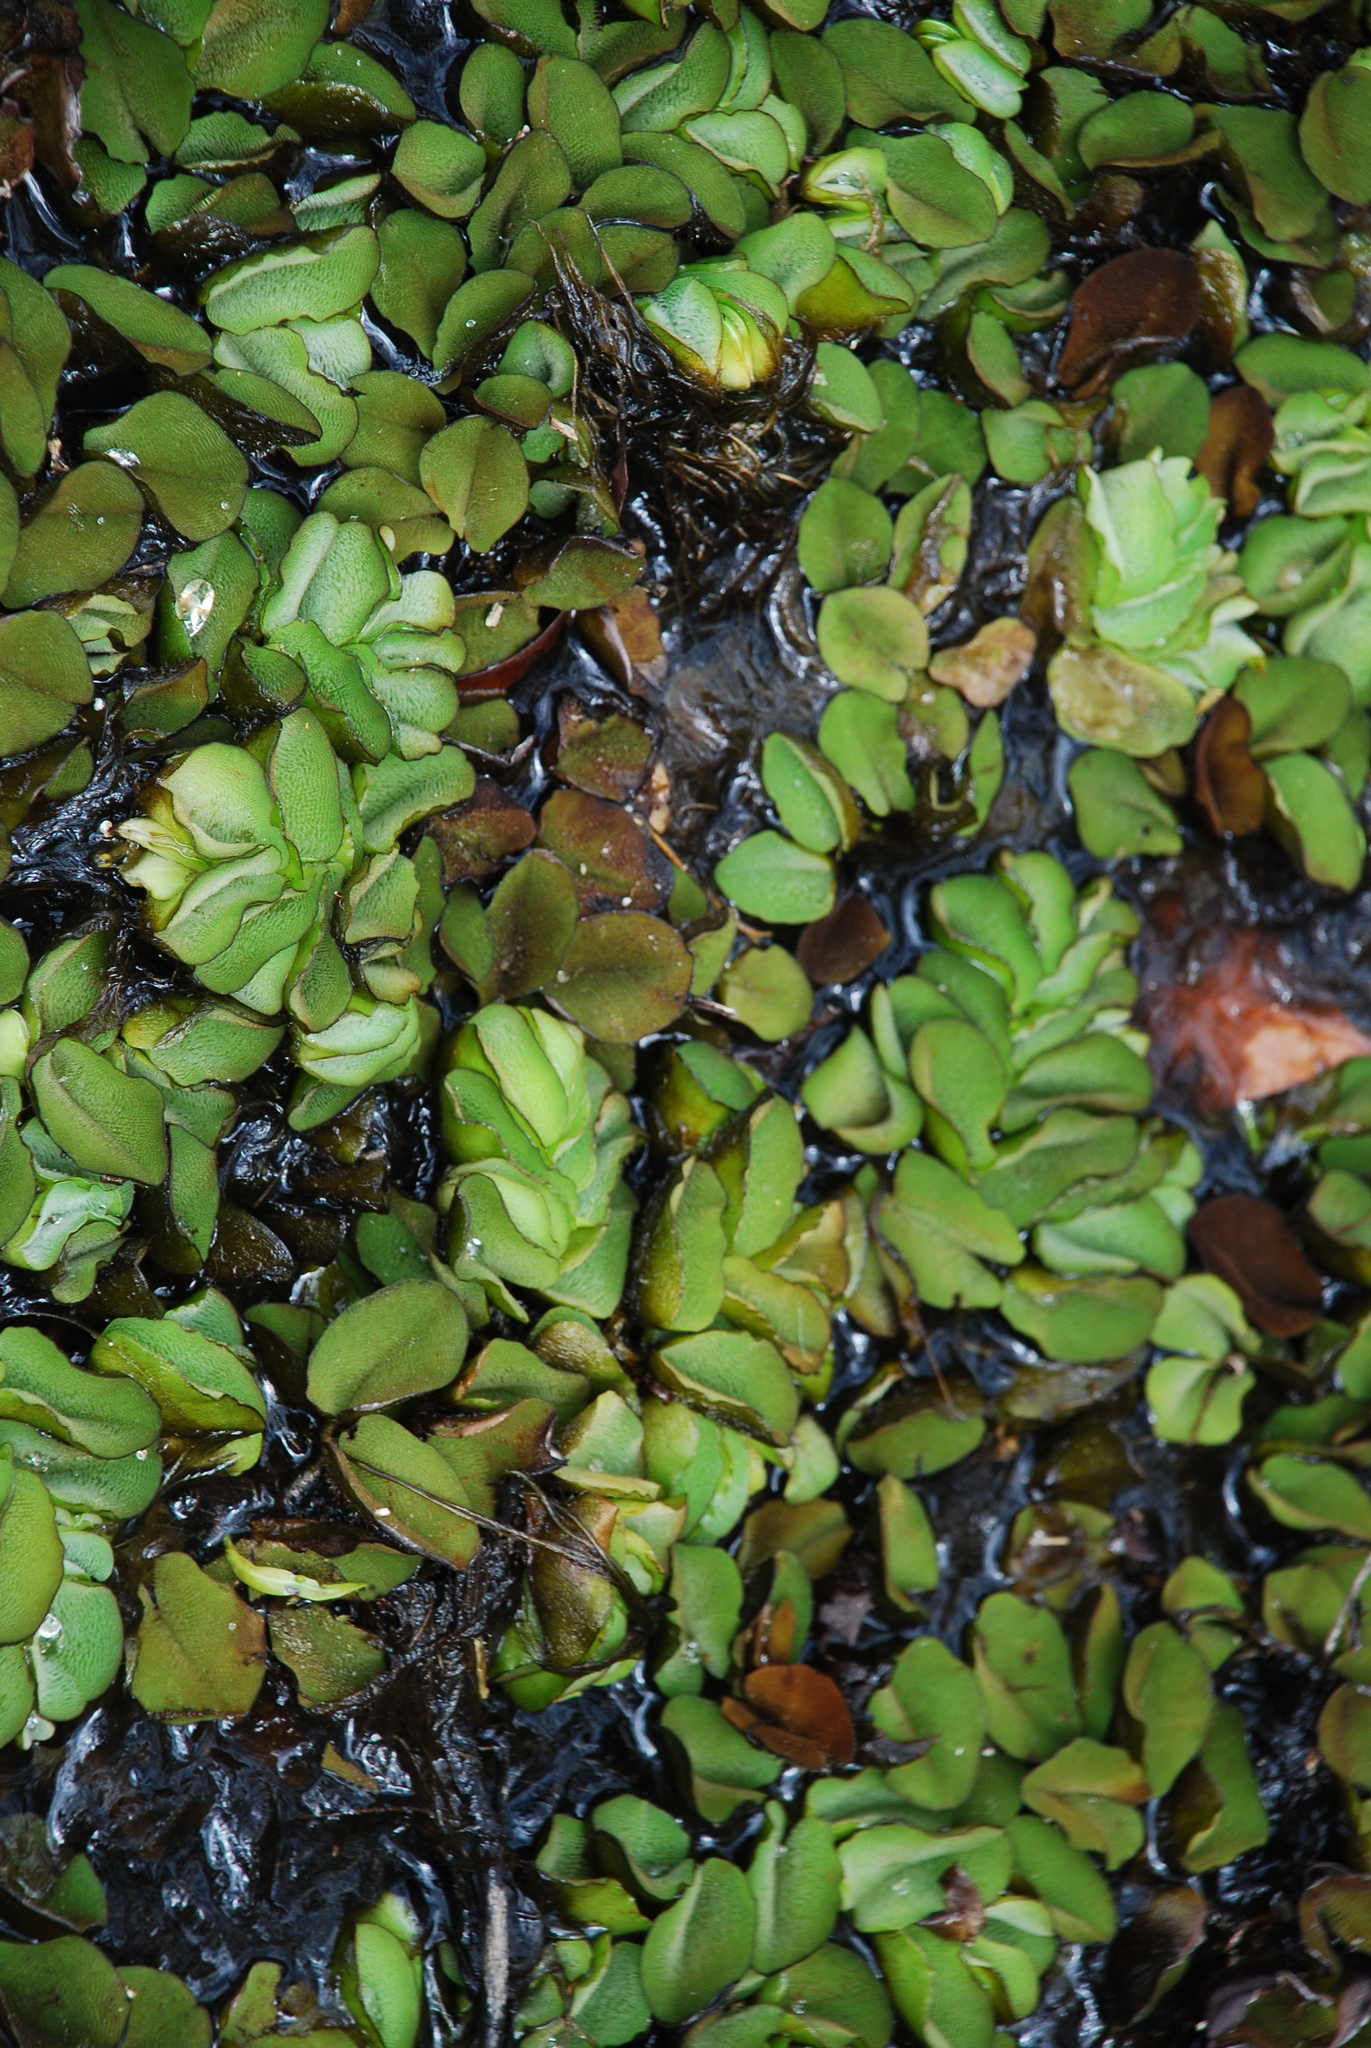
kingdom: Plantae
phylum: Tracheophyta
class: Polypodiopsida
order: Salviniales
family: Salviniaceae
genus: Salvinia
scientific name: Salvinia molesta
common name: Kariba weed
